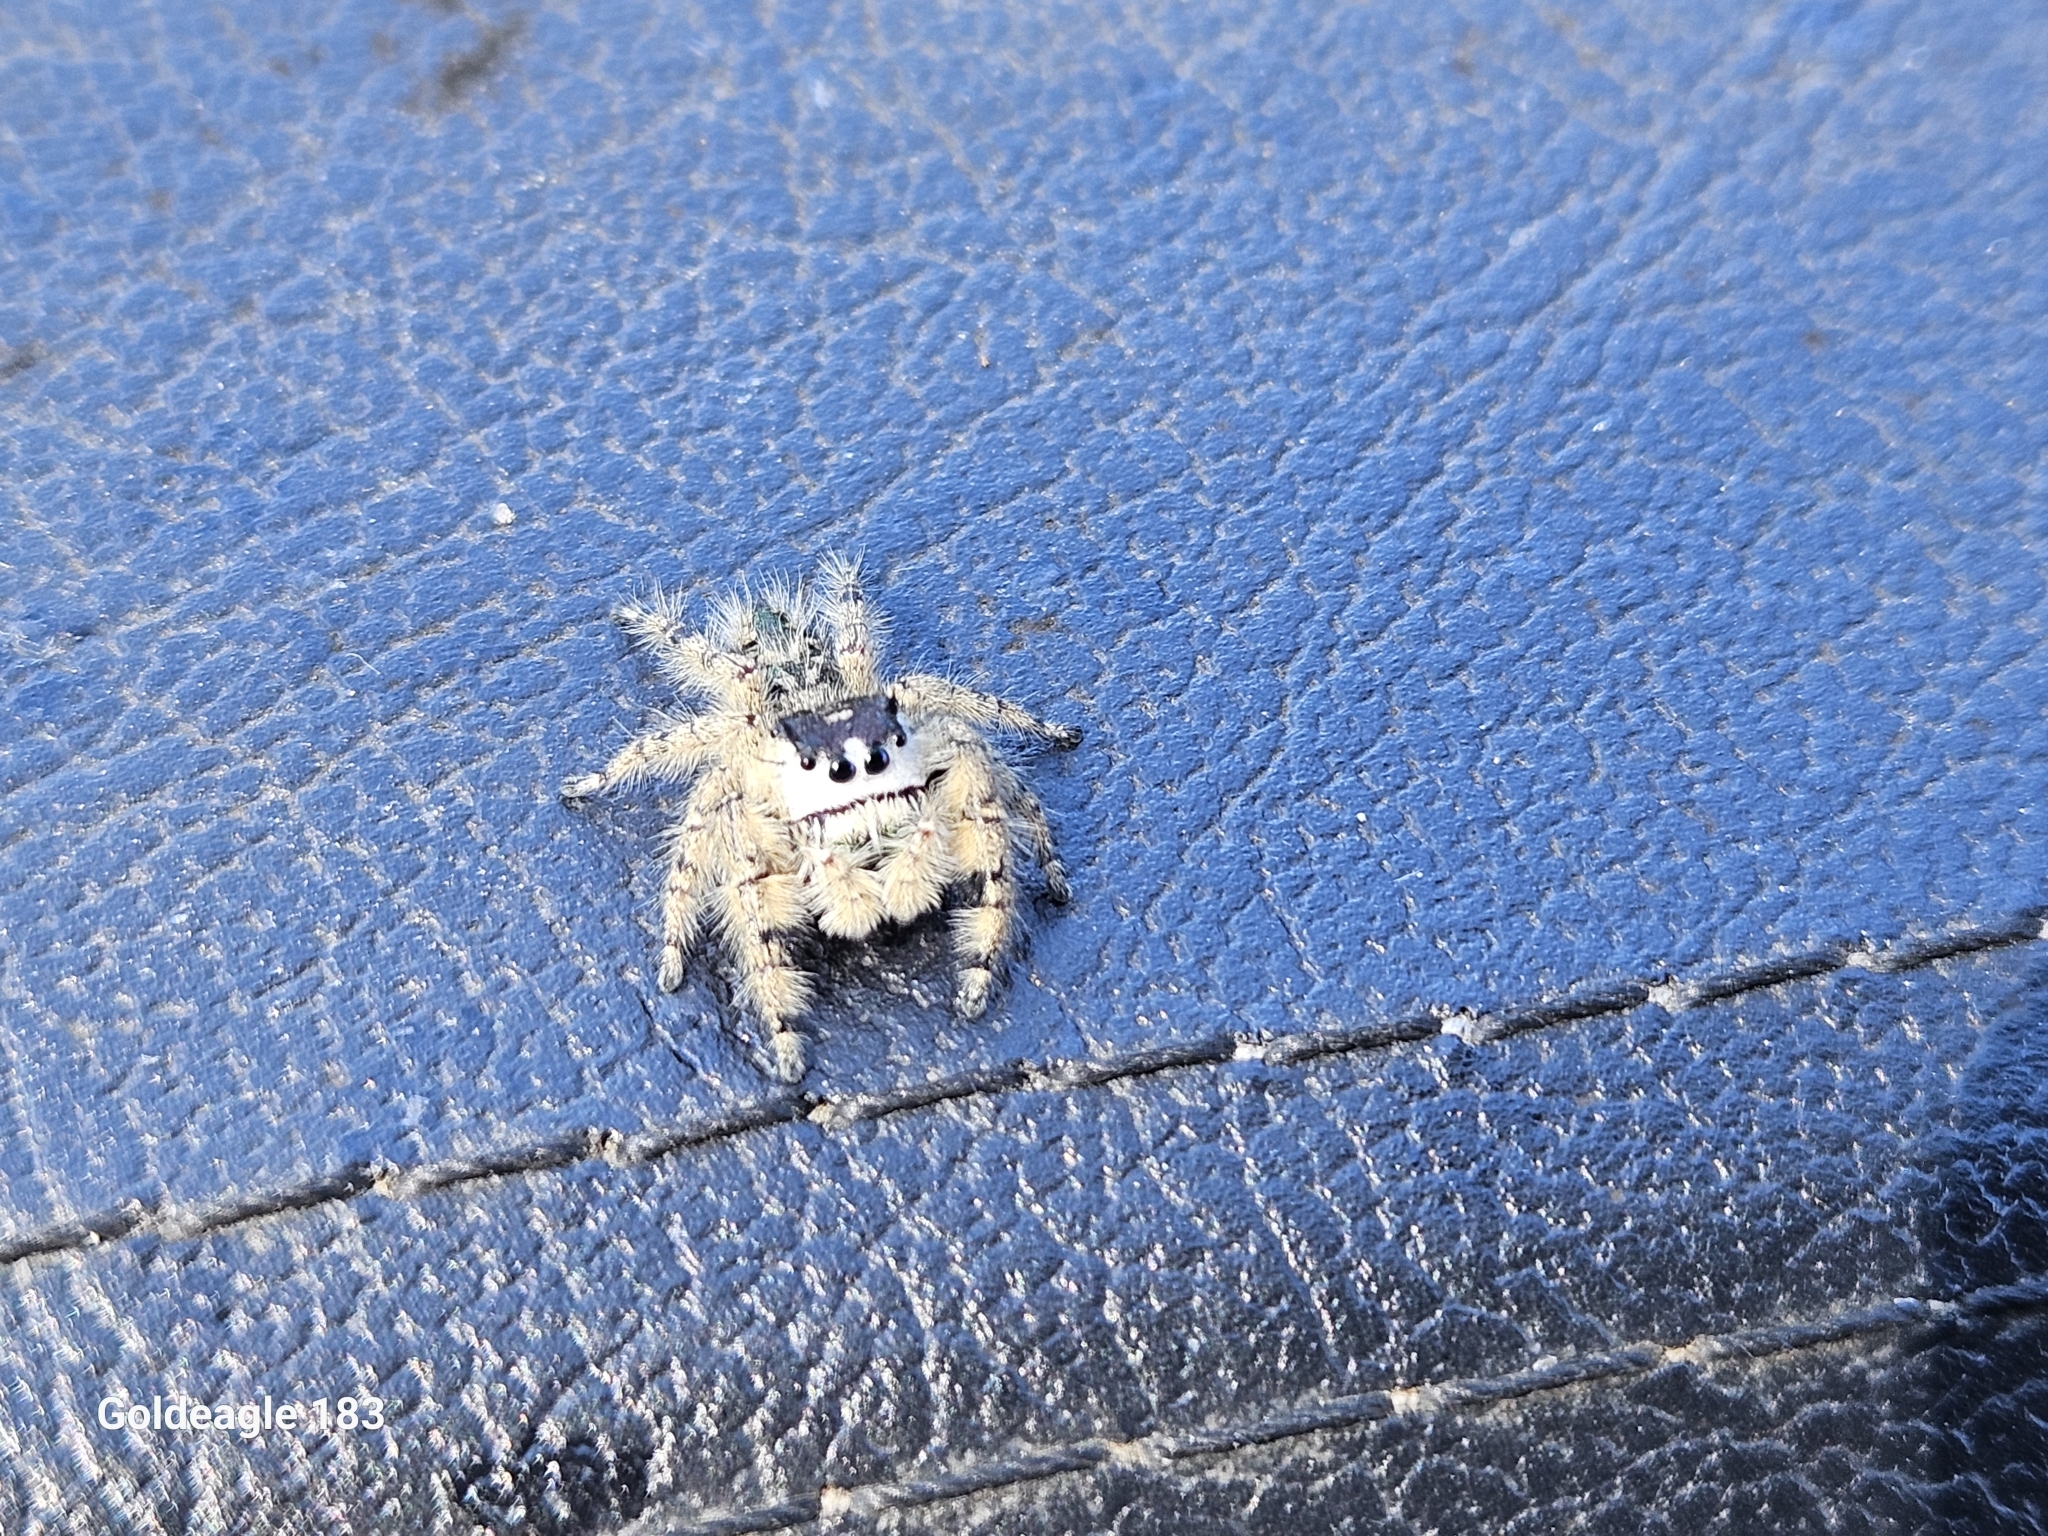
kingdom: Animalia
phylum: Arthropoda
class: Arachnida
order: Araneae
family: Salticidae
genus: Phidippus
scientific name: Phidippus otiosus
